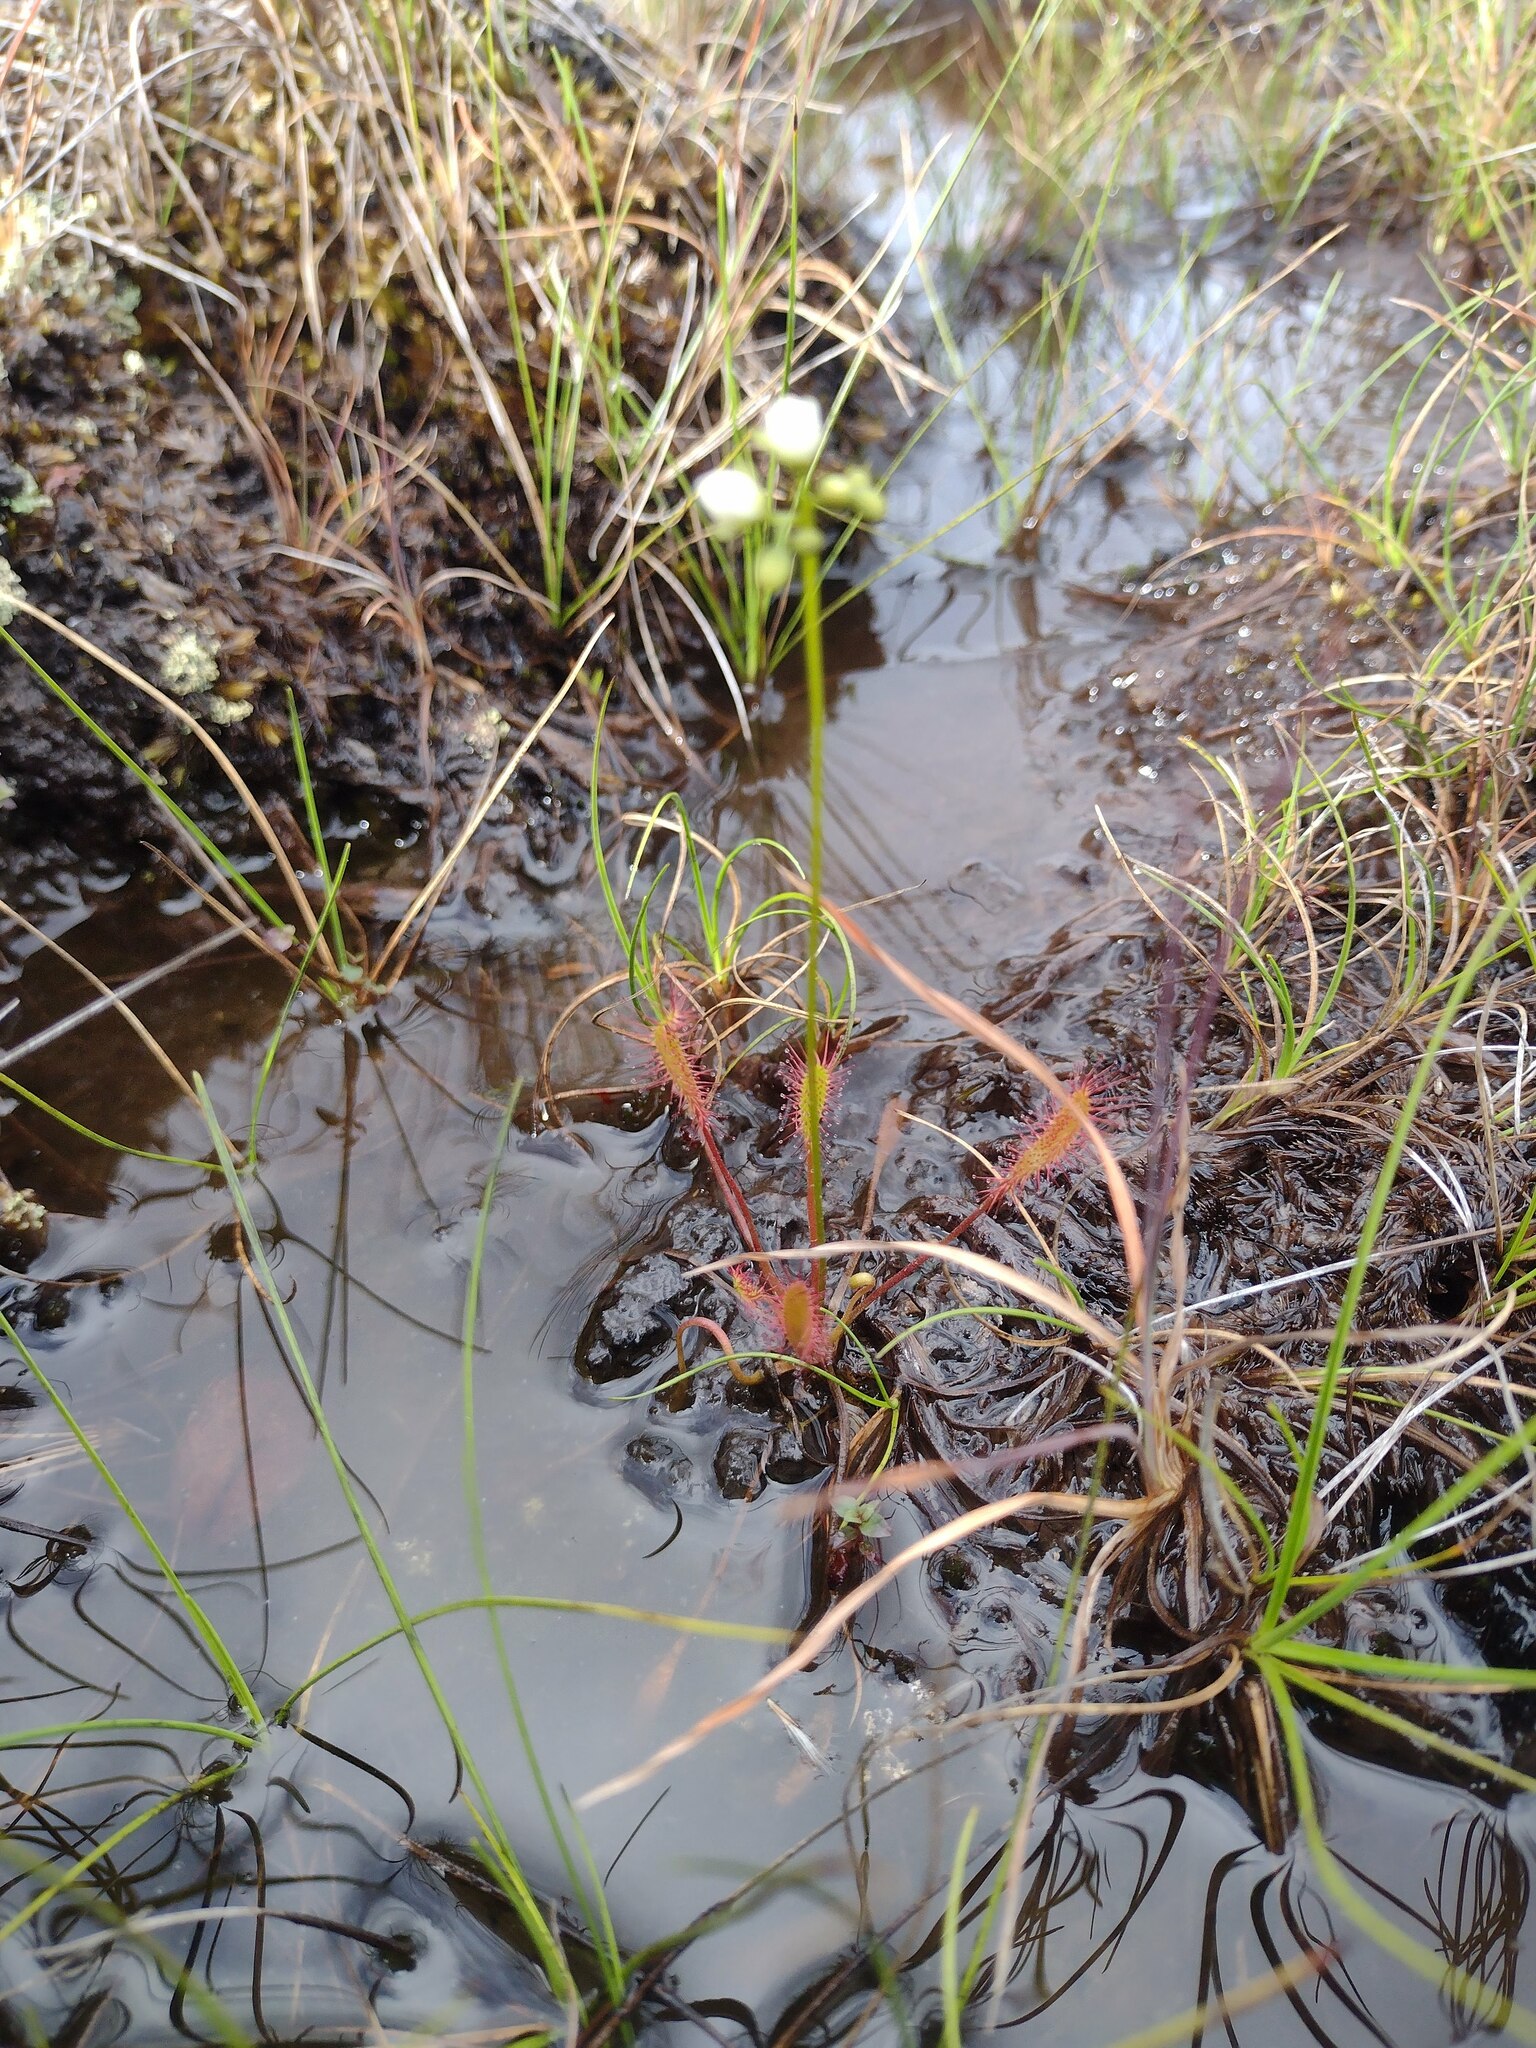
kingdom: Plantae
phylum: Tracheophyta
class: Magnoliopsida
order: Caryophyllales
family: Droseraceae
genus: Drosera
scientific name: Drosera anglica
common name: Great sundew
